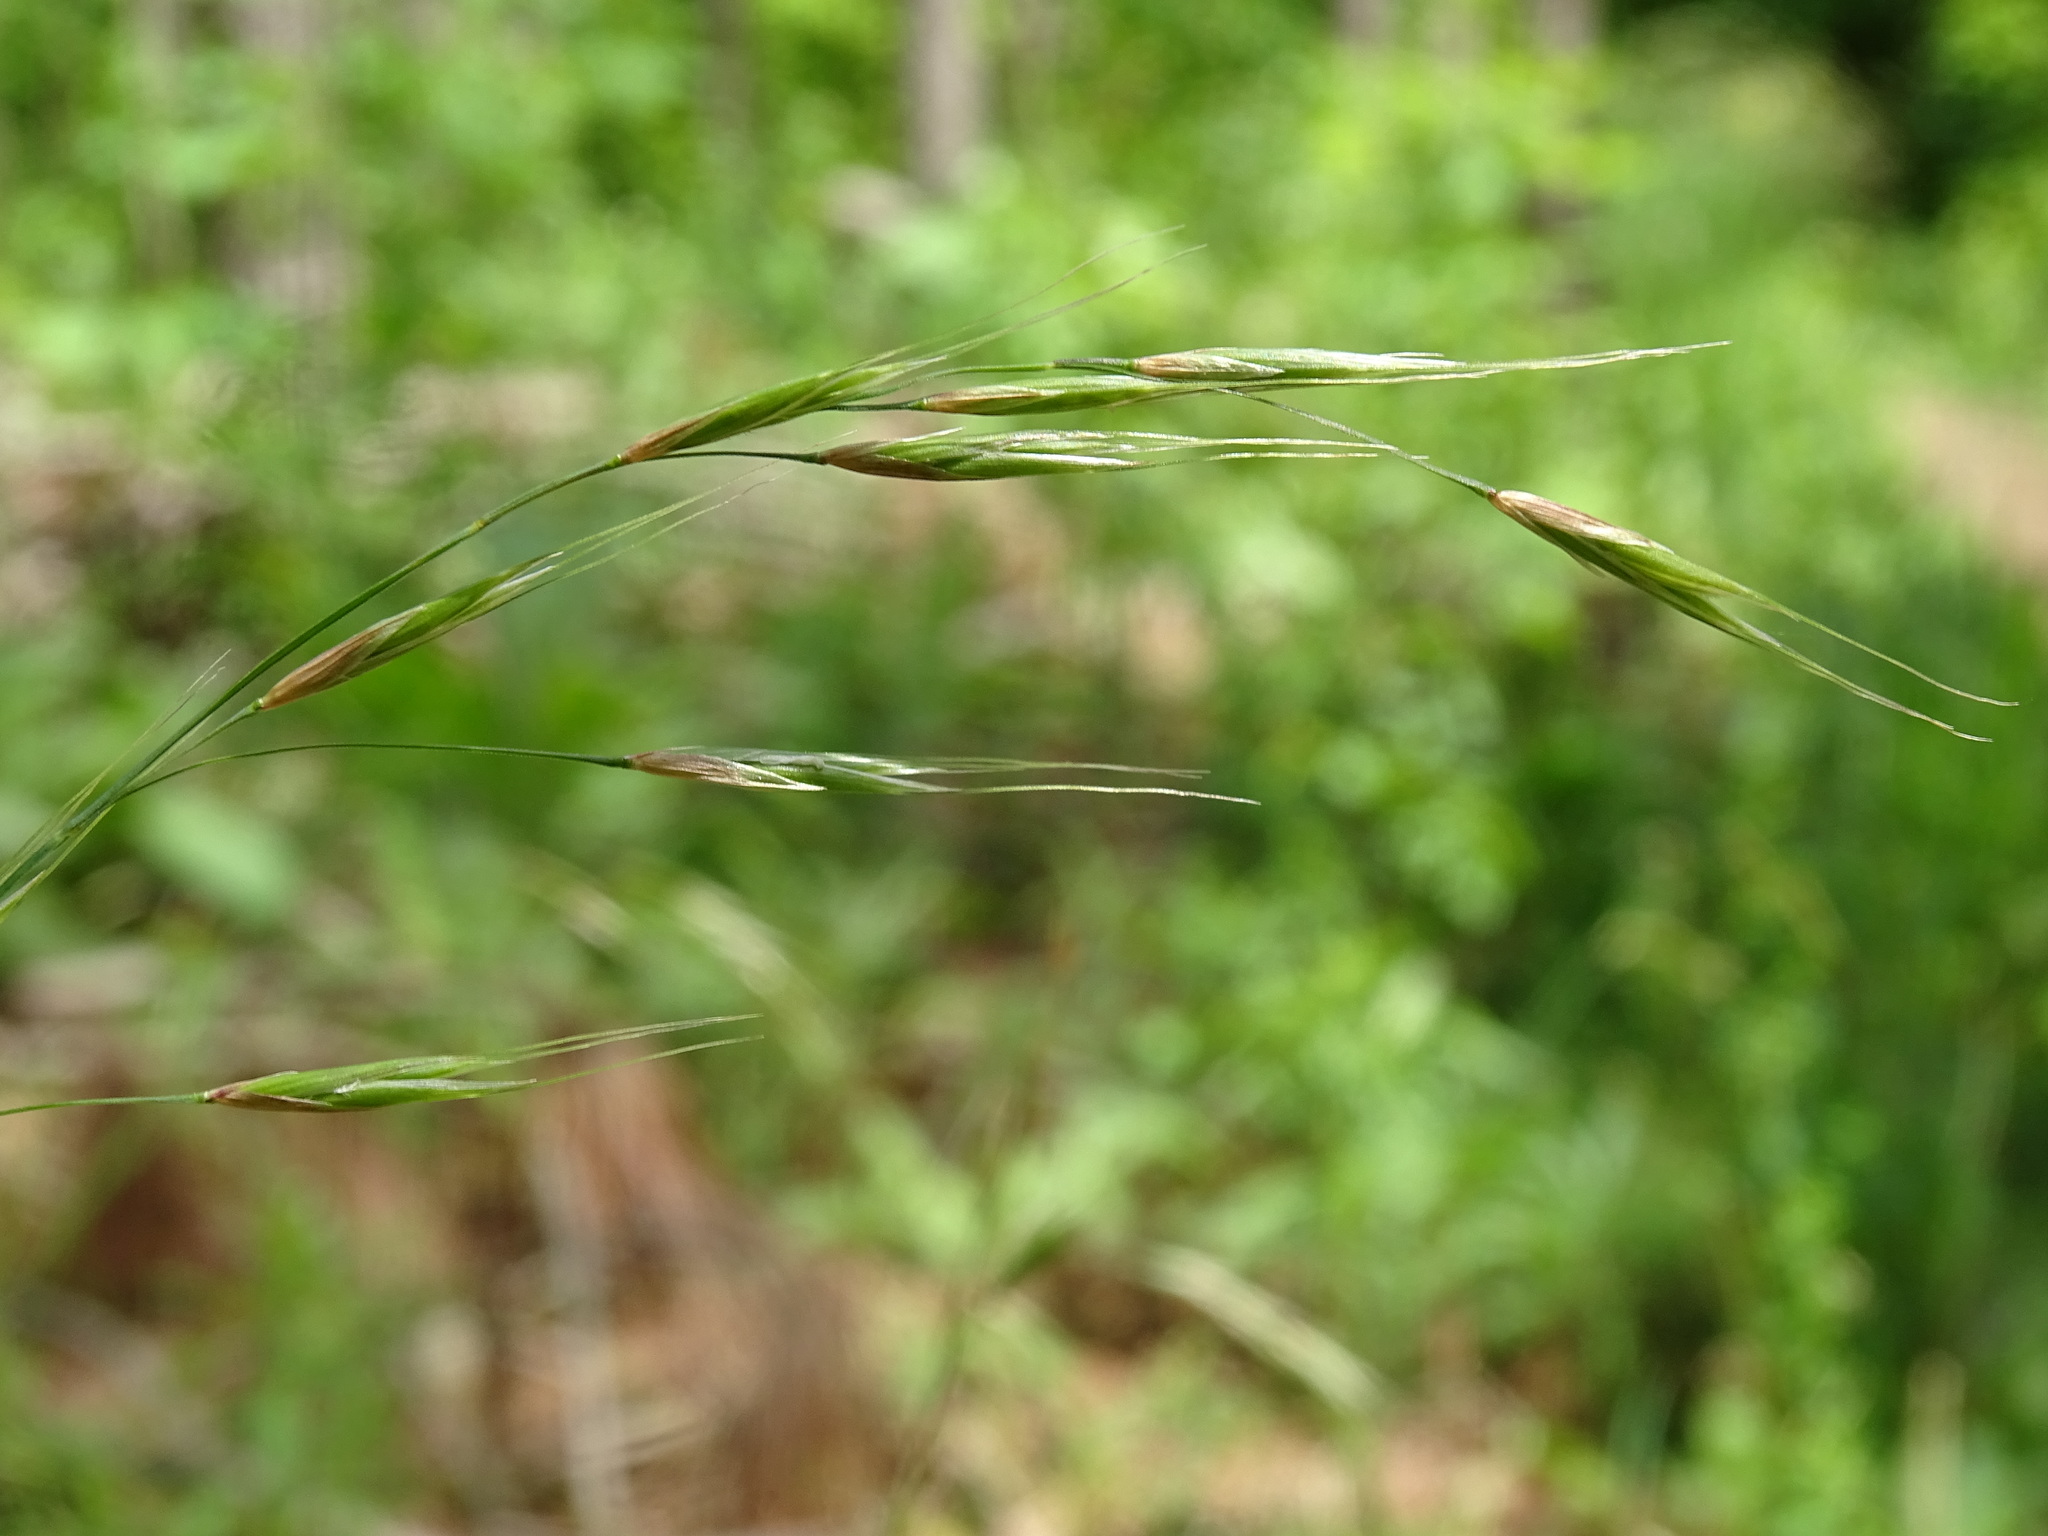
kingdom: Plantae
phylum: Tracheophyta
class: Liliopsida
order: Poales
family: Poaceae
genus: Schizachne
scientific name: Schizachne purpurascens
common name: False melic
